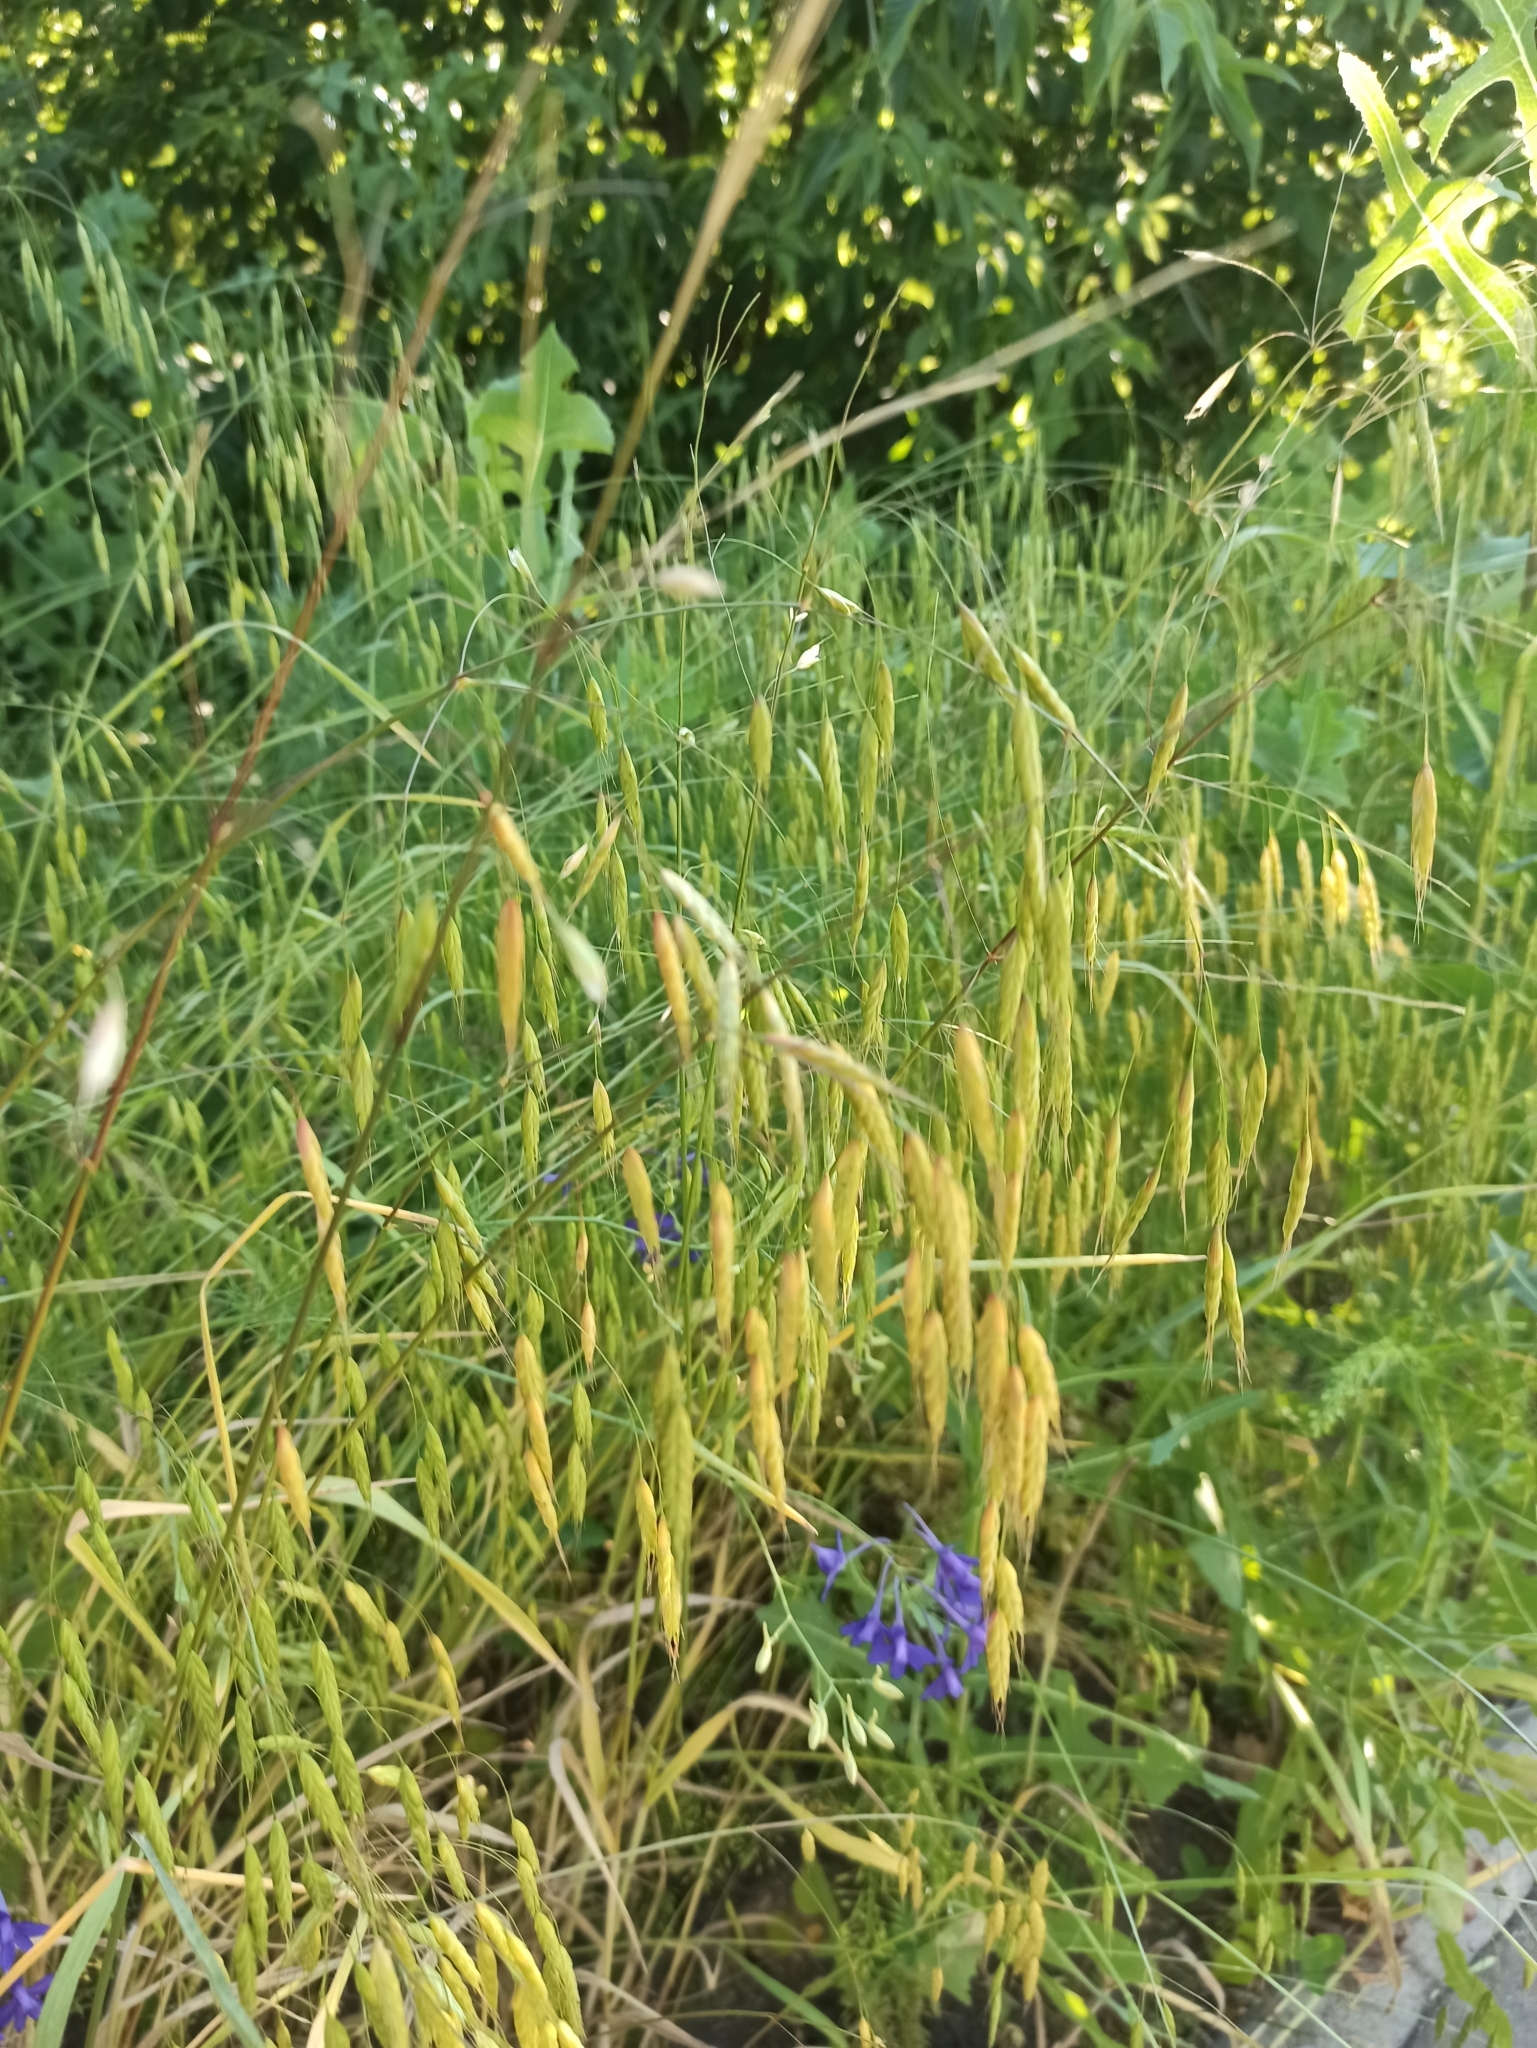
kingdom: Plantae
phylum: Tracheophyta
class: Liliopsida
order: Poales
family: Poaceae
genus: Bromus
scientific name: Bromus japonicus
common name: Japanese brome
